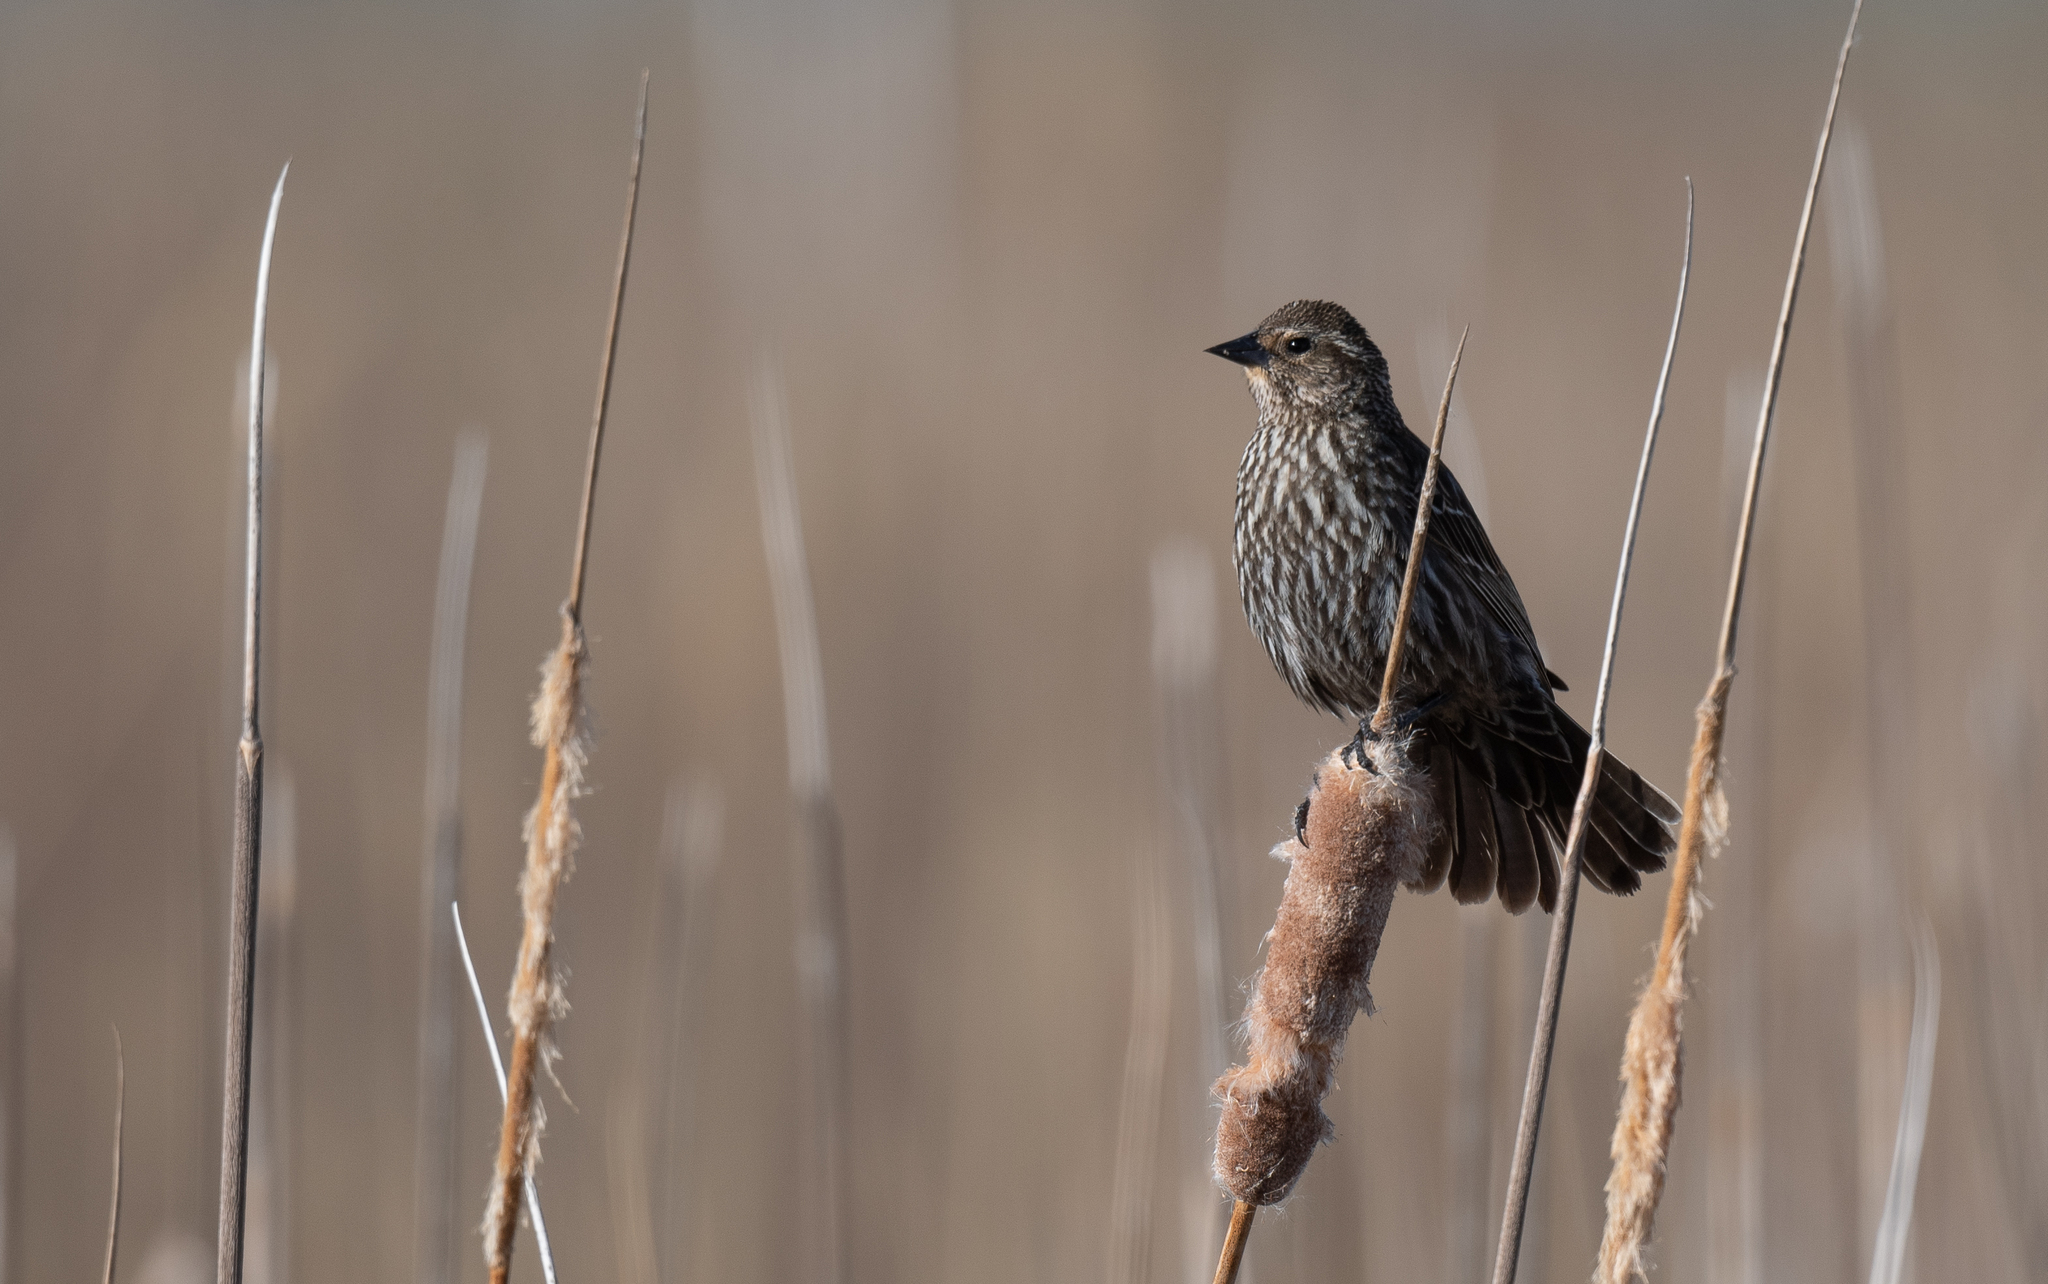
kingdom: Animalia
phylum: Chordata
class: Aves
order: Passeriformes
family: Icteridae
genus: Agelaius
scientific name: Agelaius phoeniceus
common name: Red-winged blackbird
